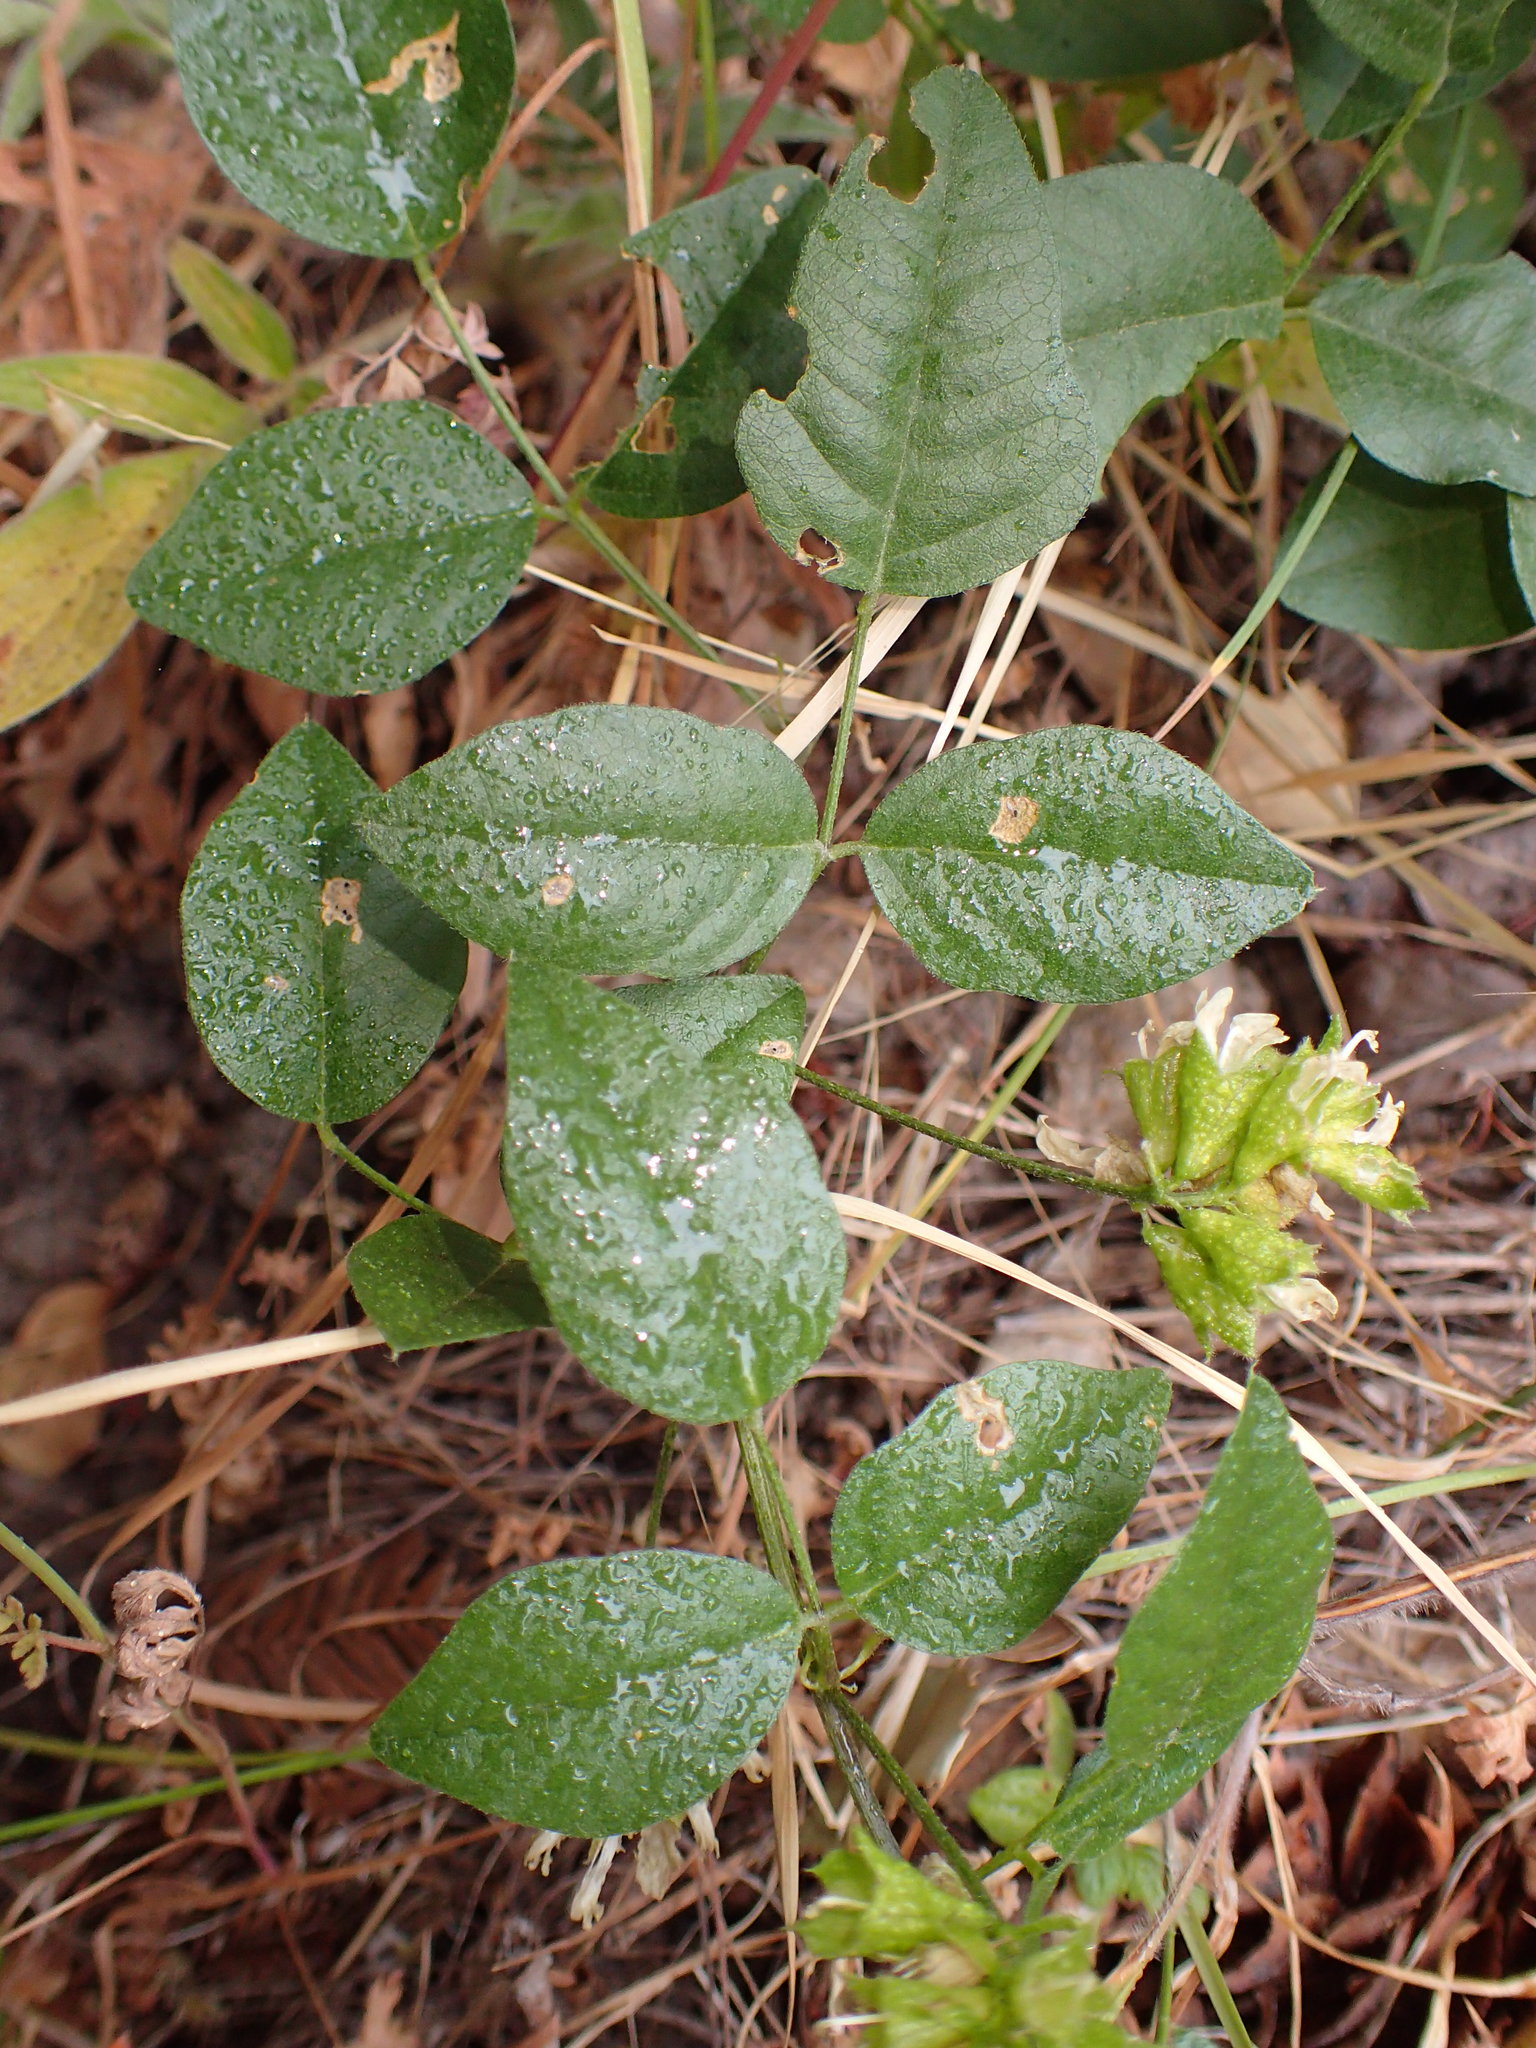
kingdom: Plantae
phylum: Tracheophyta
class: Magnoliopsida
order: Fabales
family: Fabaceae
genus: Rupertia
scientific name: Rupertia physodes
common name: California-tea
